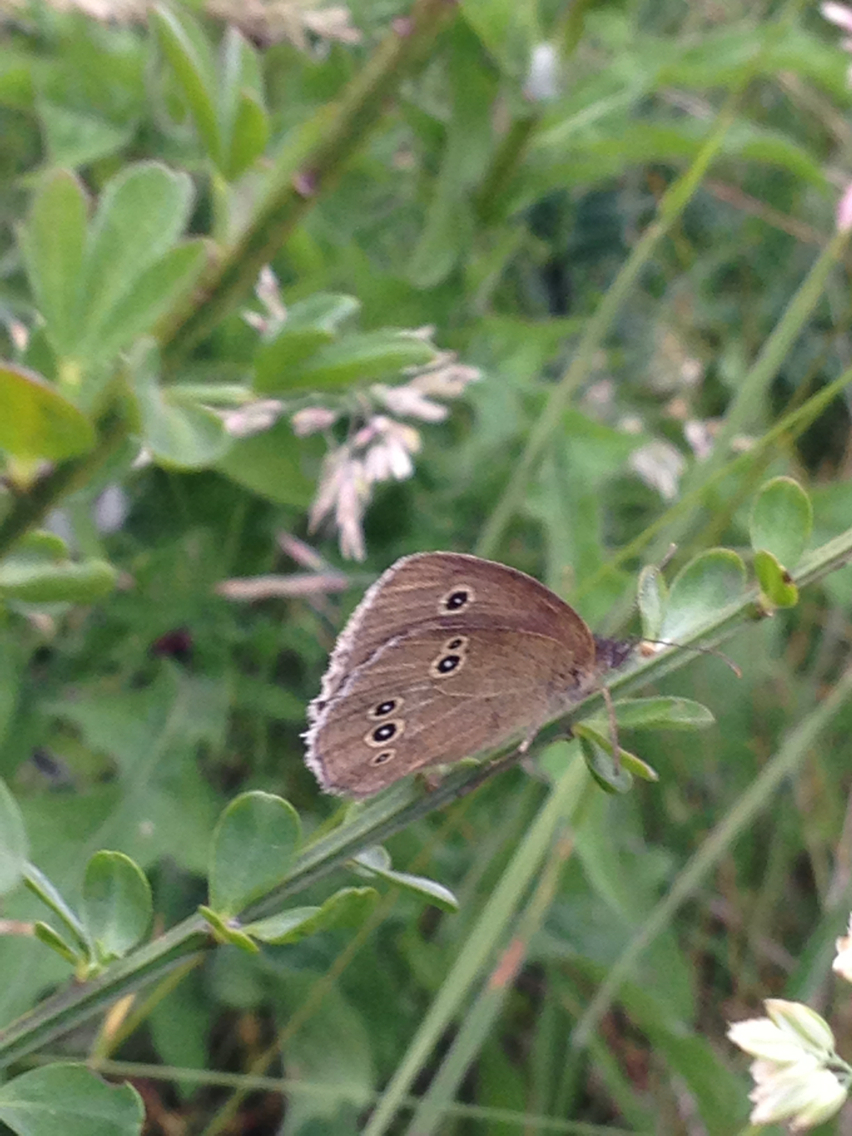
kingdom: Animalia
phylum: Arthropoda
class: Insecta
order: Lepidoptera
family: Nymphalidae
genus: Aphantopus
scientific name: Aphantopus hyperantus
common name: Ringlet
